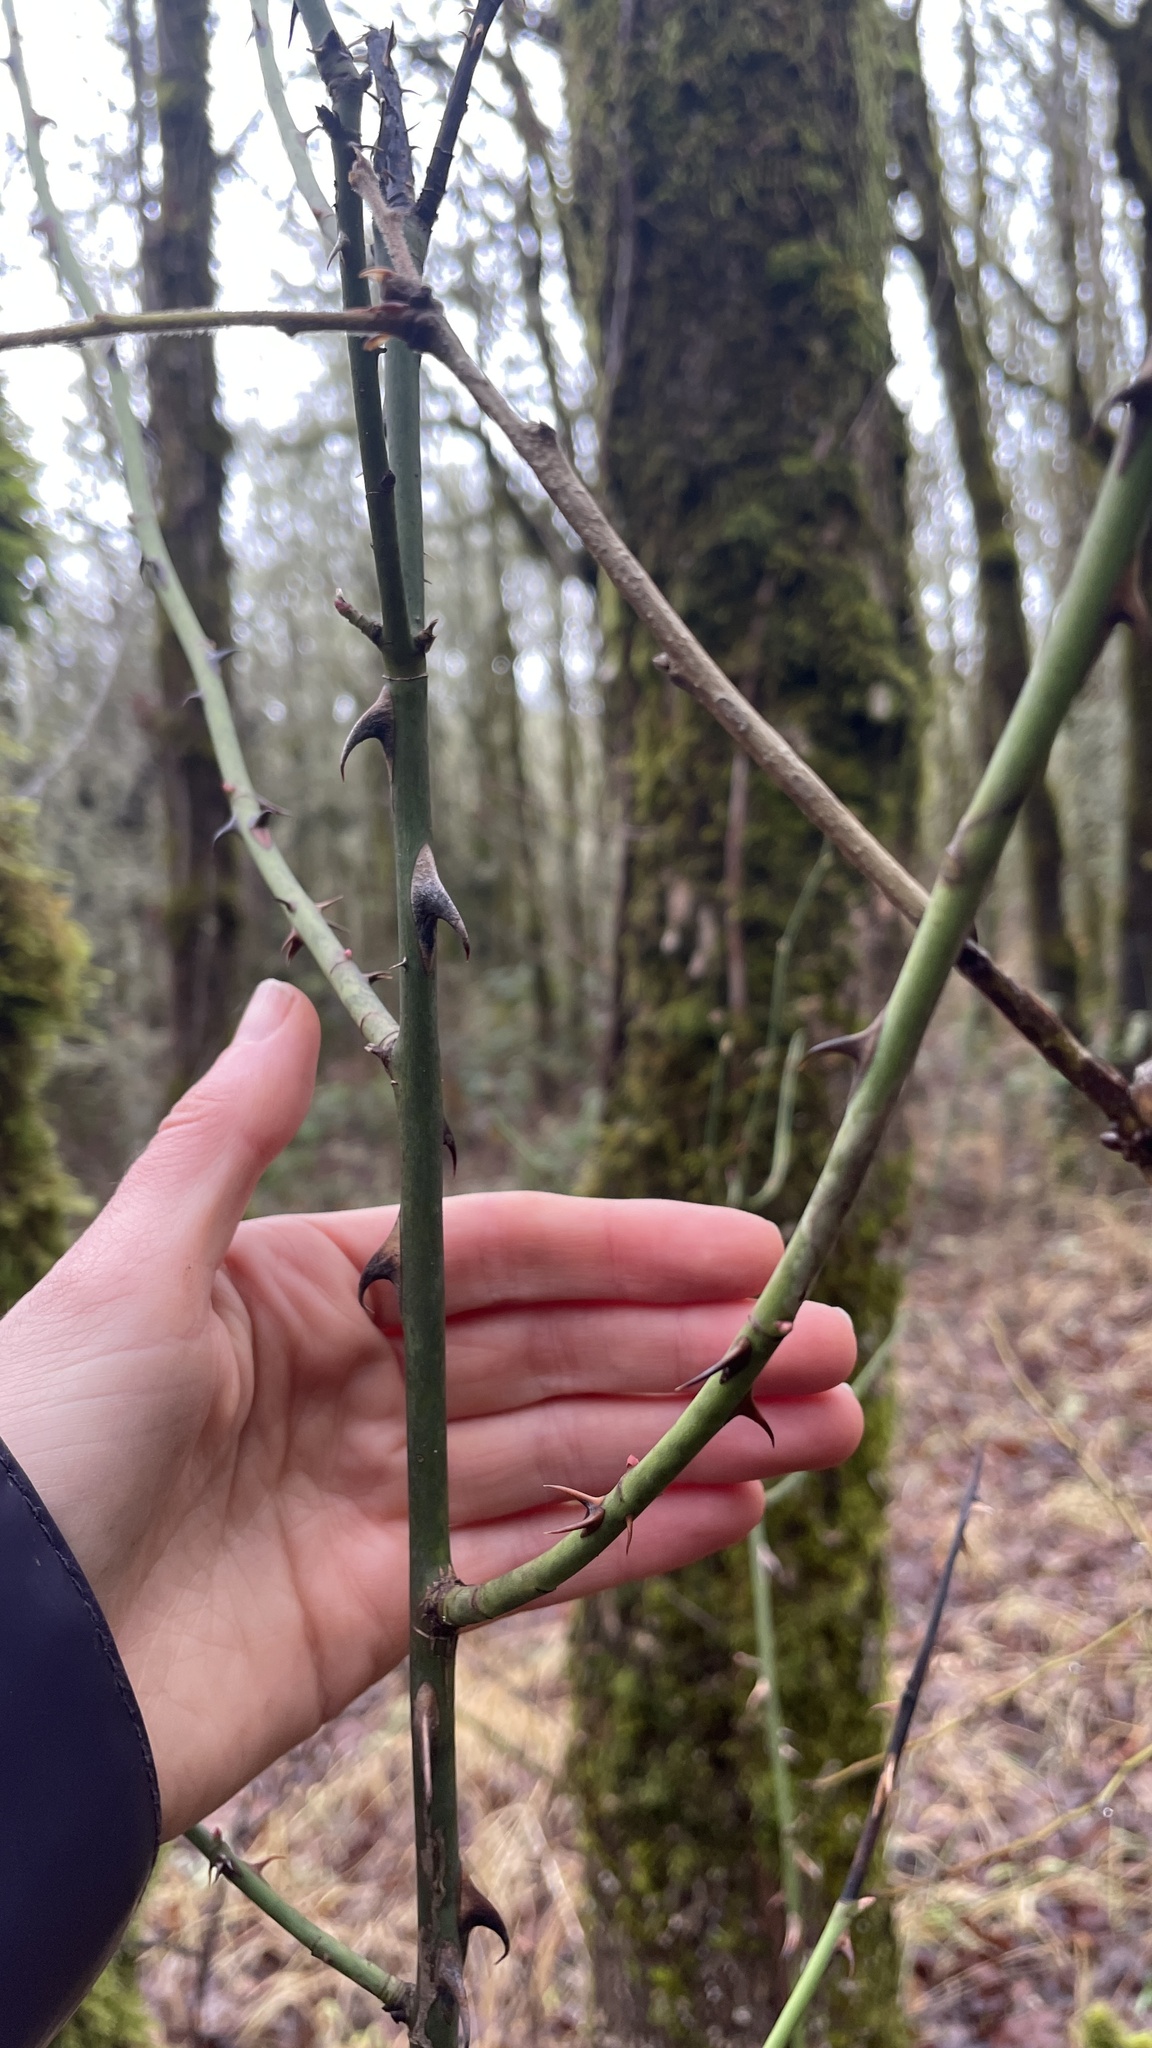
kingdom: Plantae
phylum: Tracheophyta
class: Magnoliopsida
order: Rosales
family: Rosaceae
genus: Rosa
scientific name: Rosa
